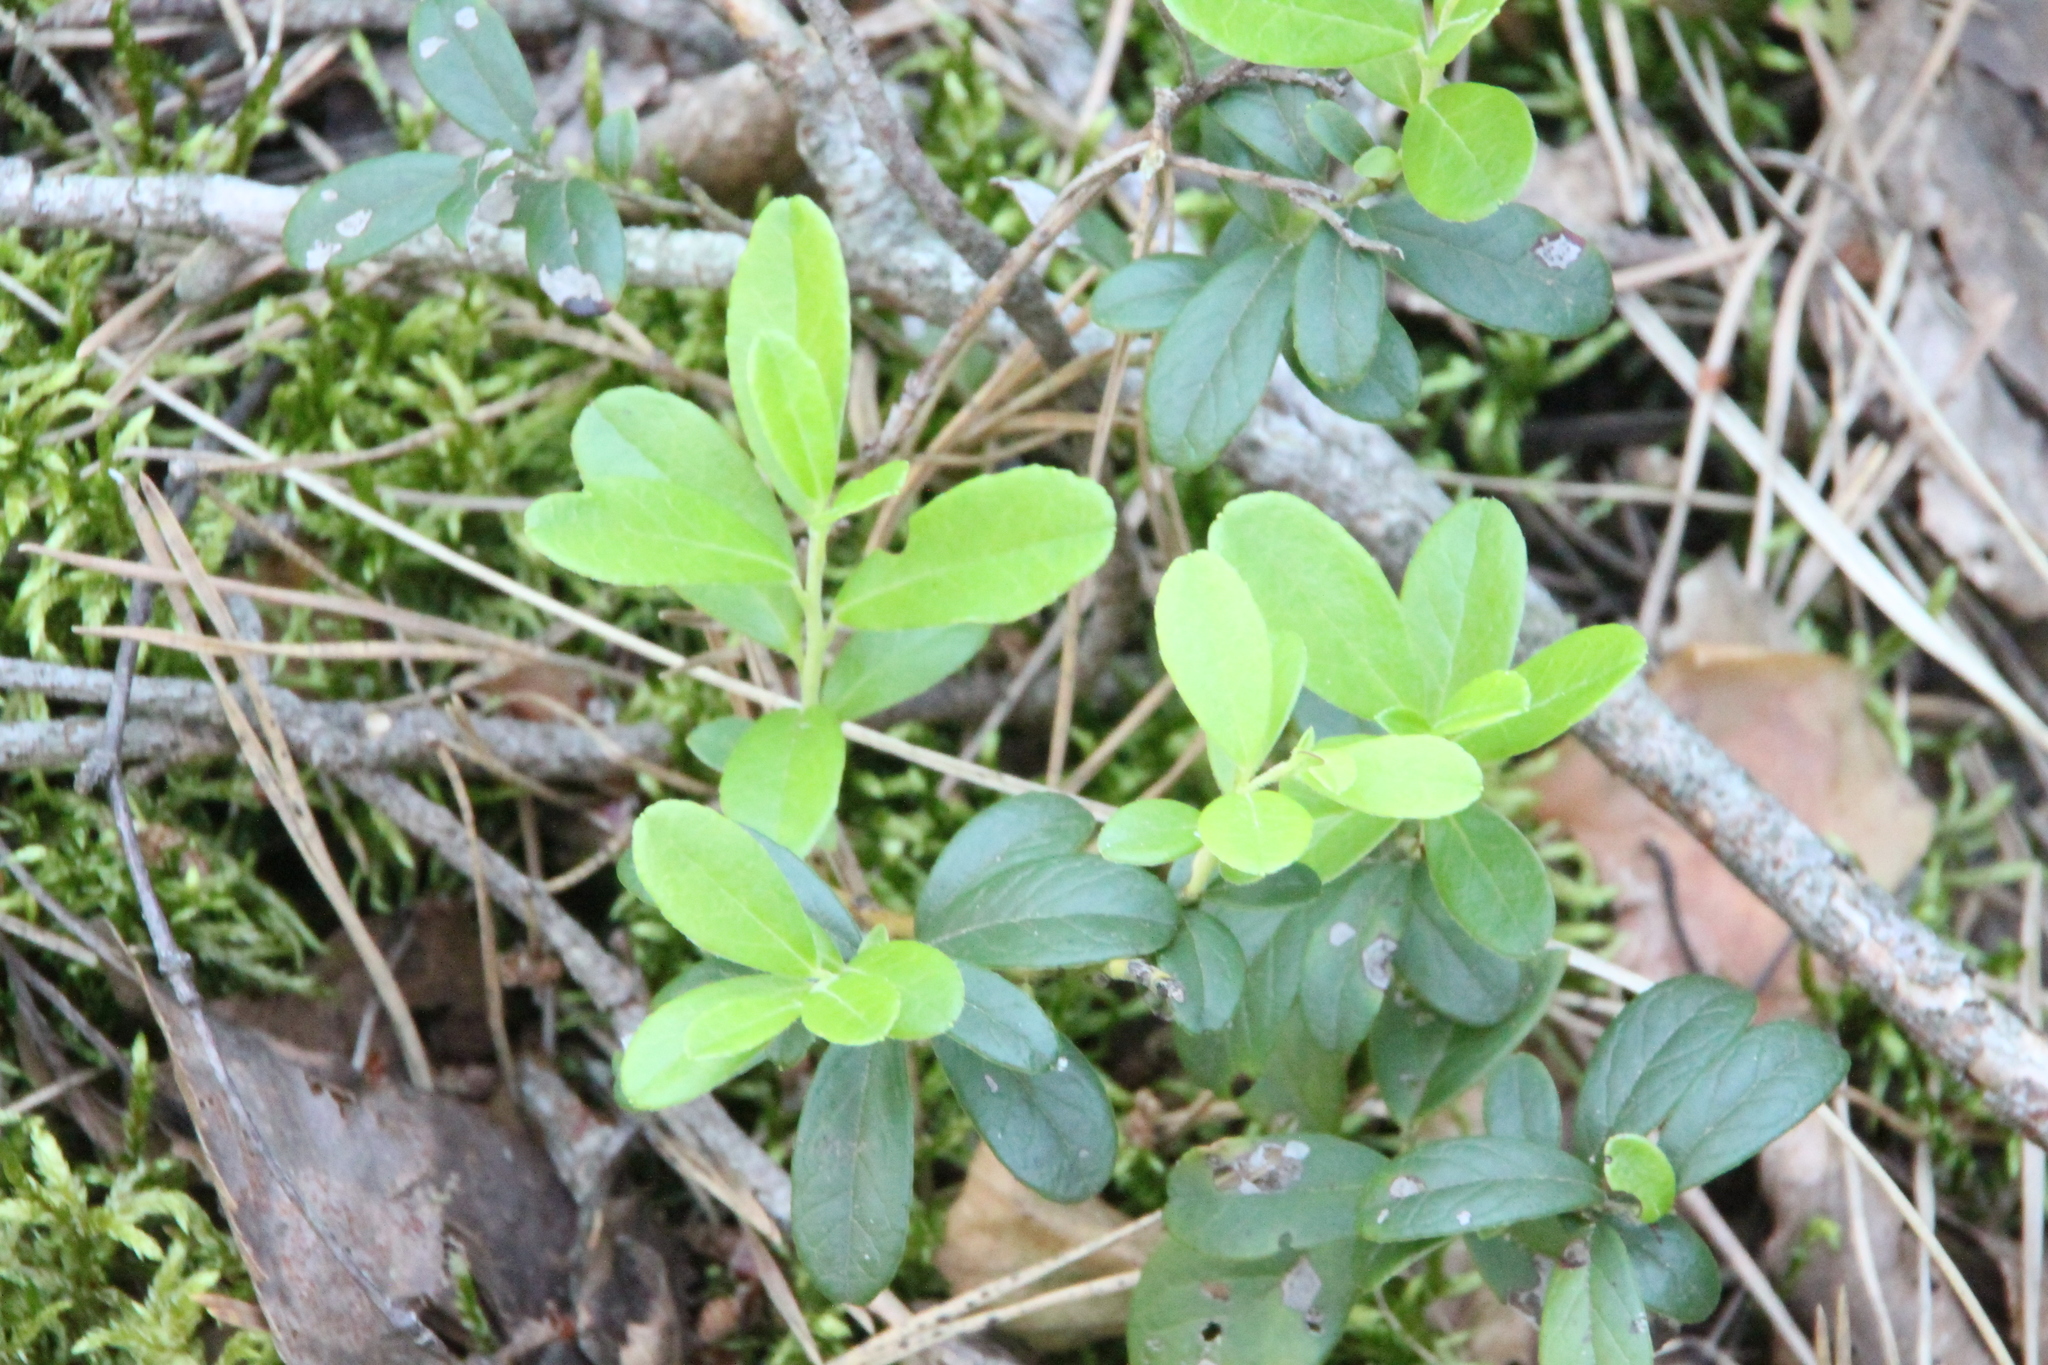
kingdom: Plantae
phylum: Tracheophyta
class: Magnoliopsida
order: Ericales
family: Ericaceae
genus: Vaccinium
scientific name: Vaccinium vitis-idaea
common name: Cowberry
